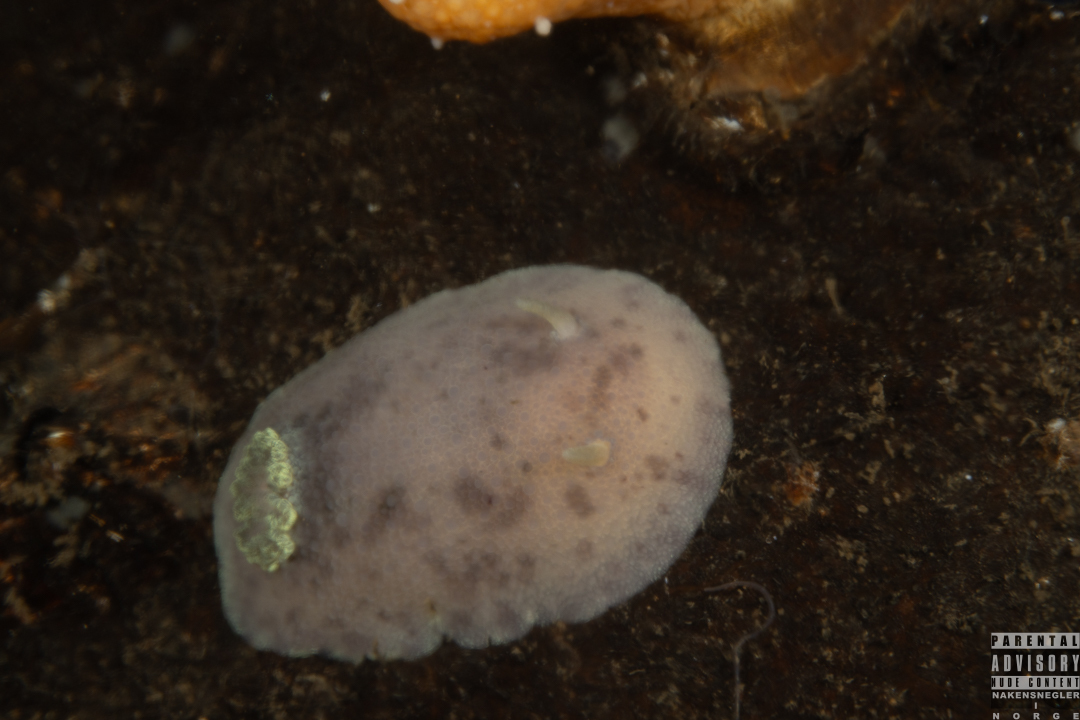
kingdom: Animalia
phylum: Mollusca
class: Gastropoda
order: Nudibranchia
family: Dorididae
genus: Doris
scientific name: Doris pseudoargus
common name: Sea lemon
